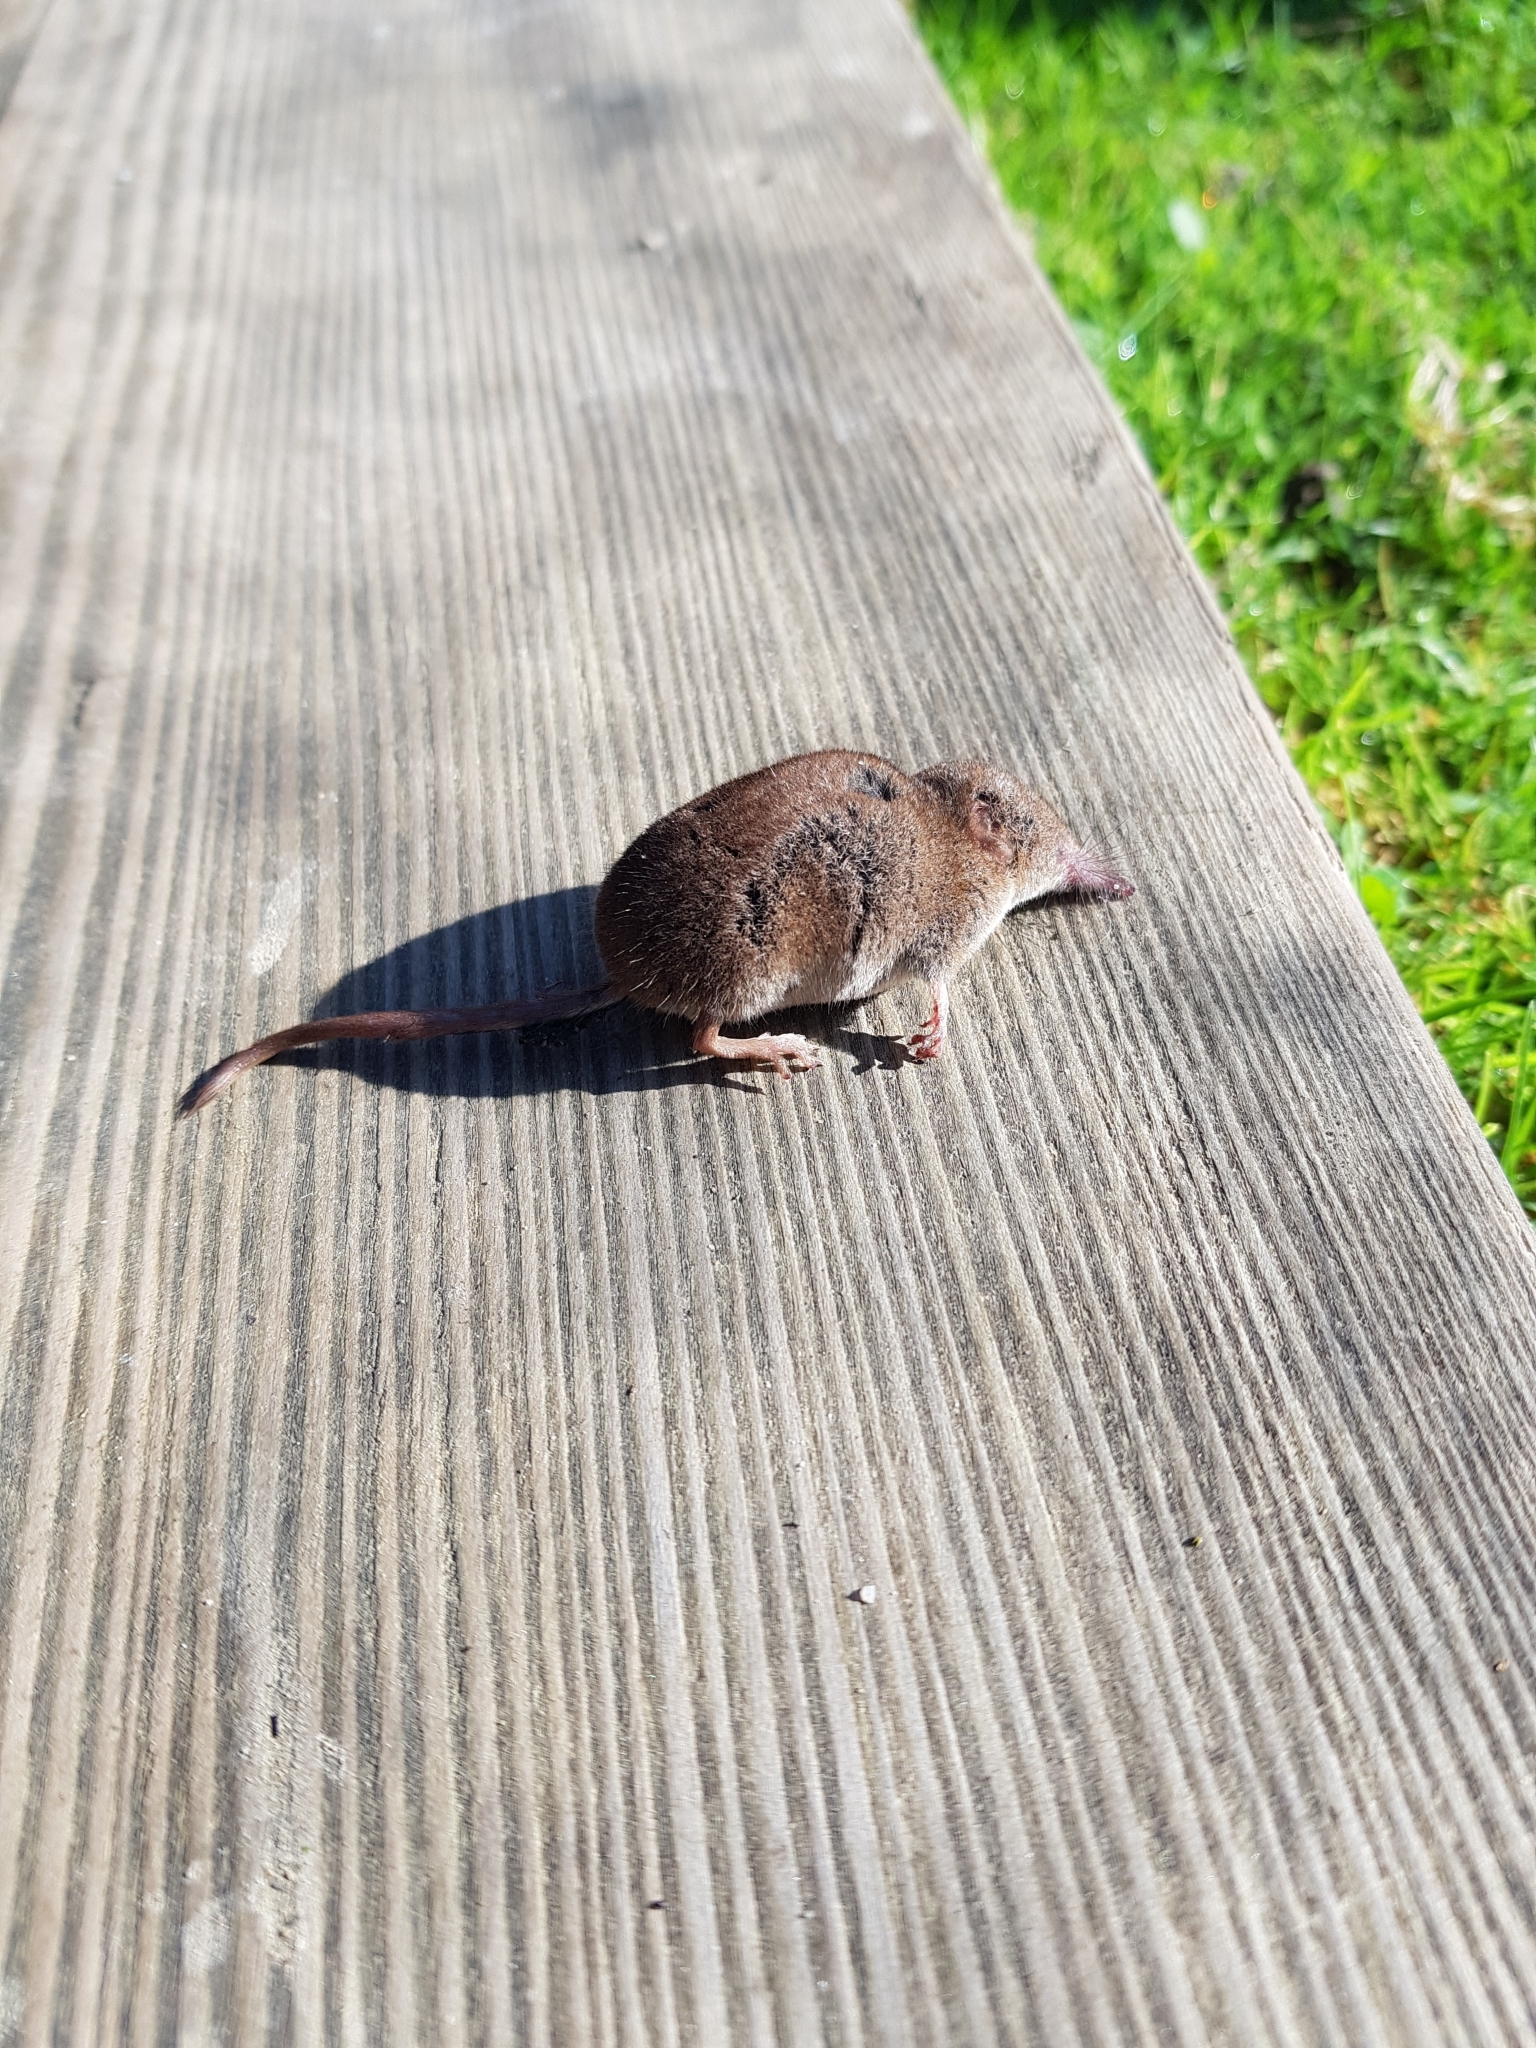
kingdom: Animalia
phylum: Chordata
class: Mammalia
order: Soricomorpha
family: Soricidae
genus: Sorex
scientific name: Sorex araneus
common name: Common shrew
